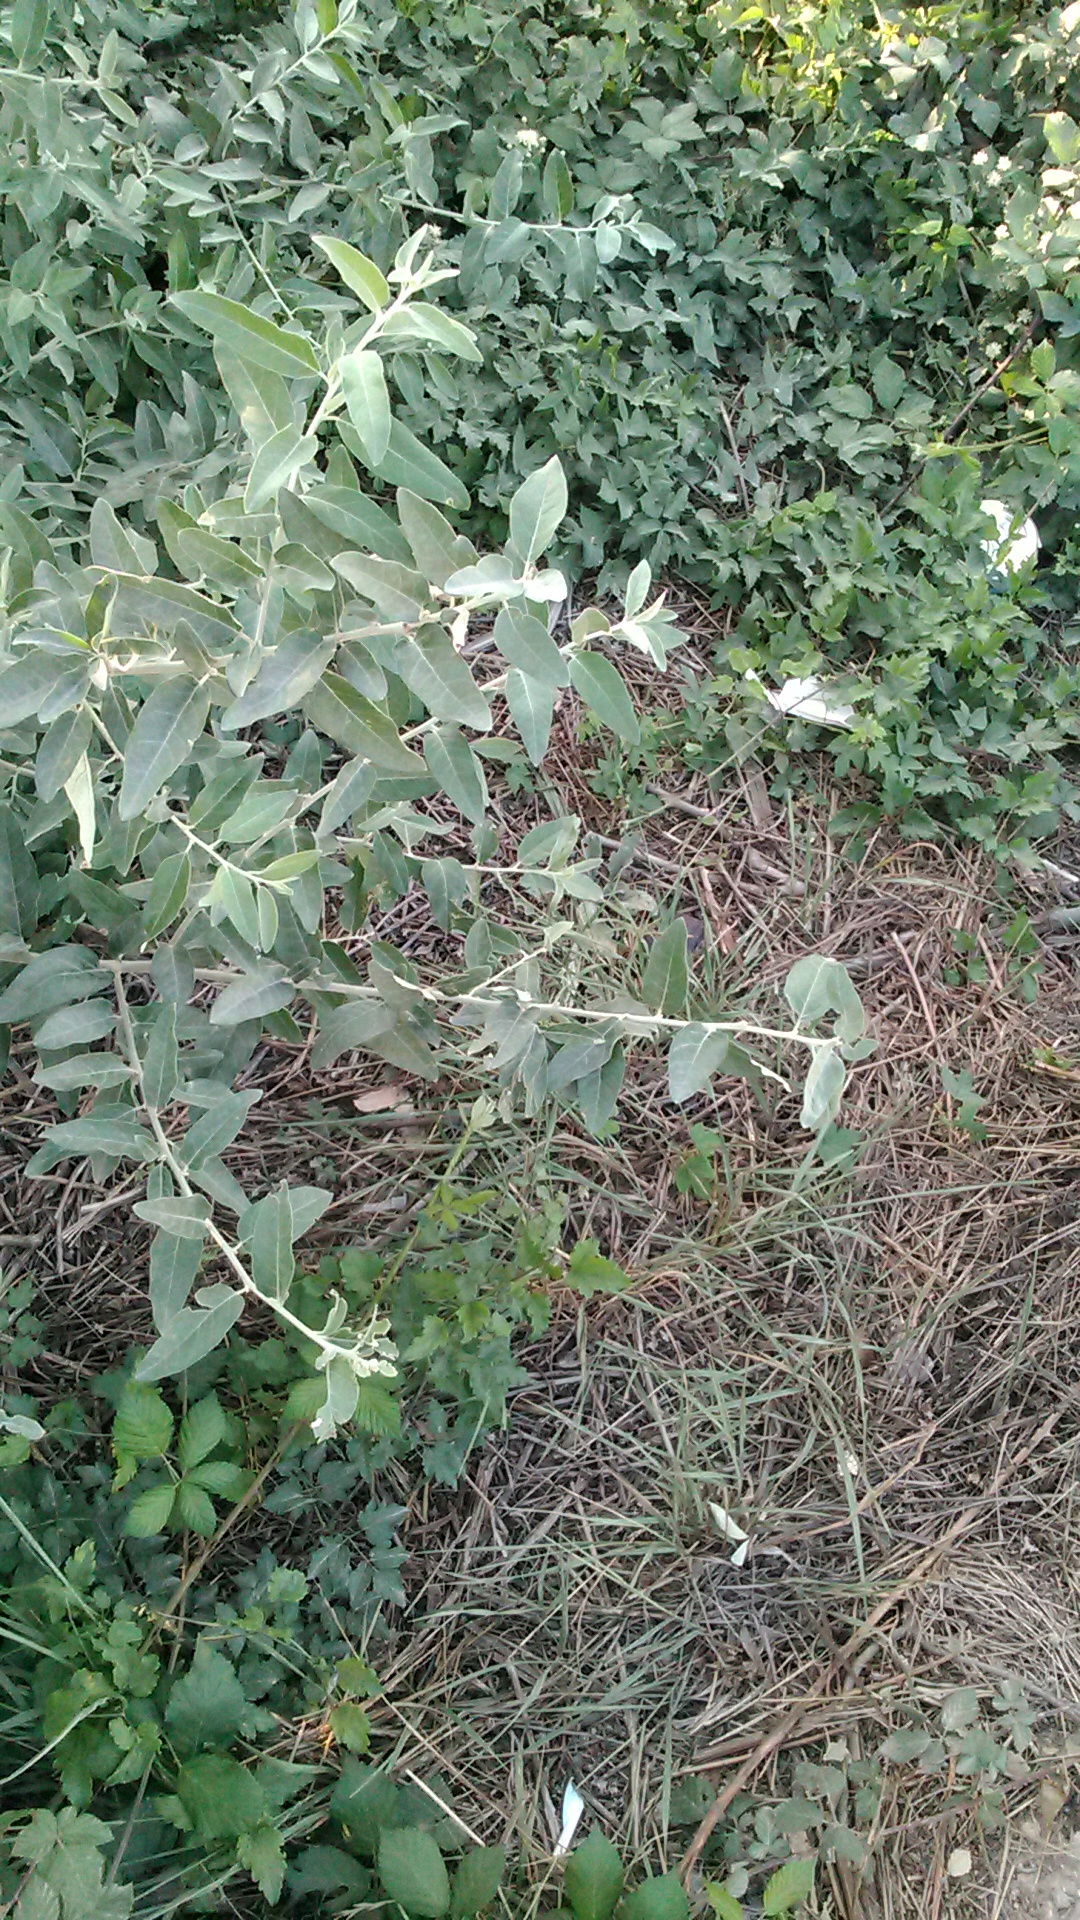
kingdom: Plantae
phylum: Tracheophyta
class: Magnoliopsida
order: Rosales
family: Elaeagnaceae
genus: Elaeagnus
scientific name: Elaeagnus angustifolia
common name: Russian olive
